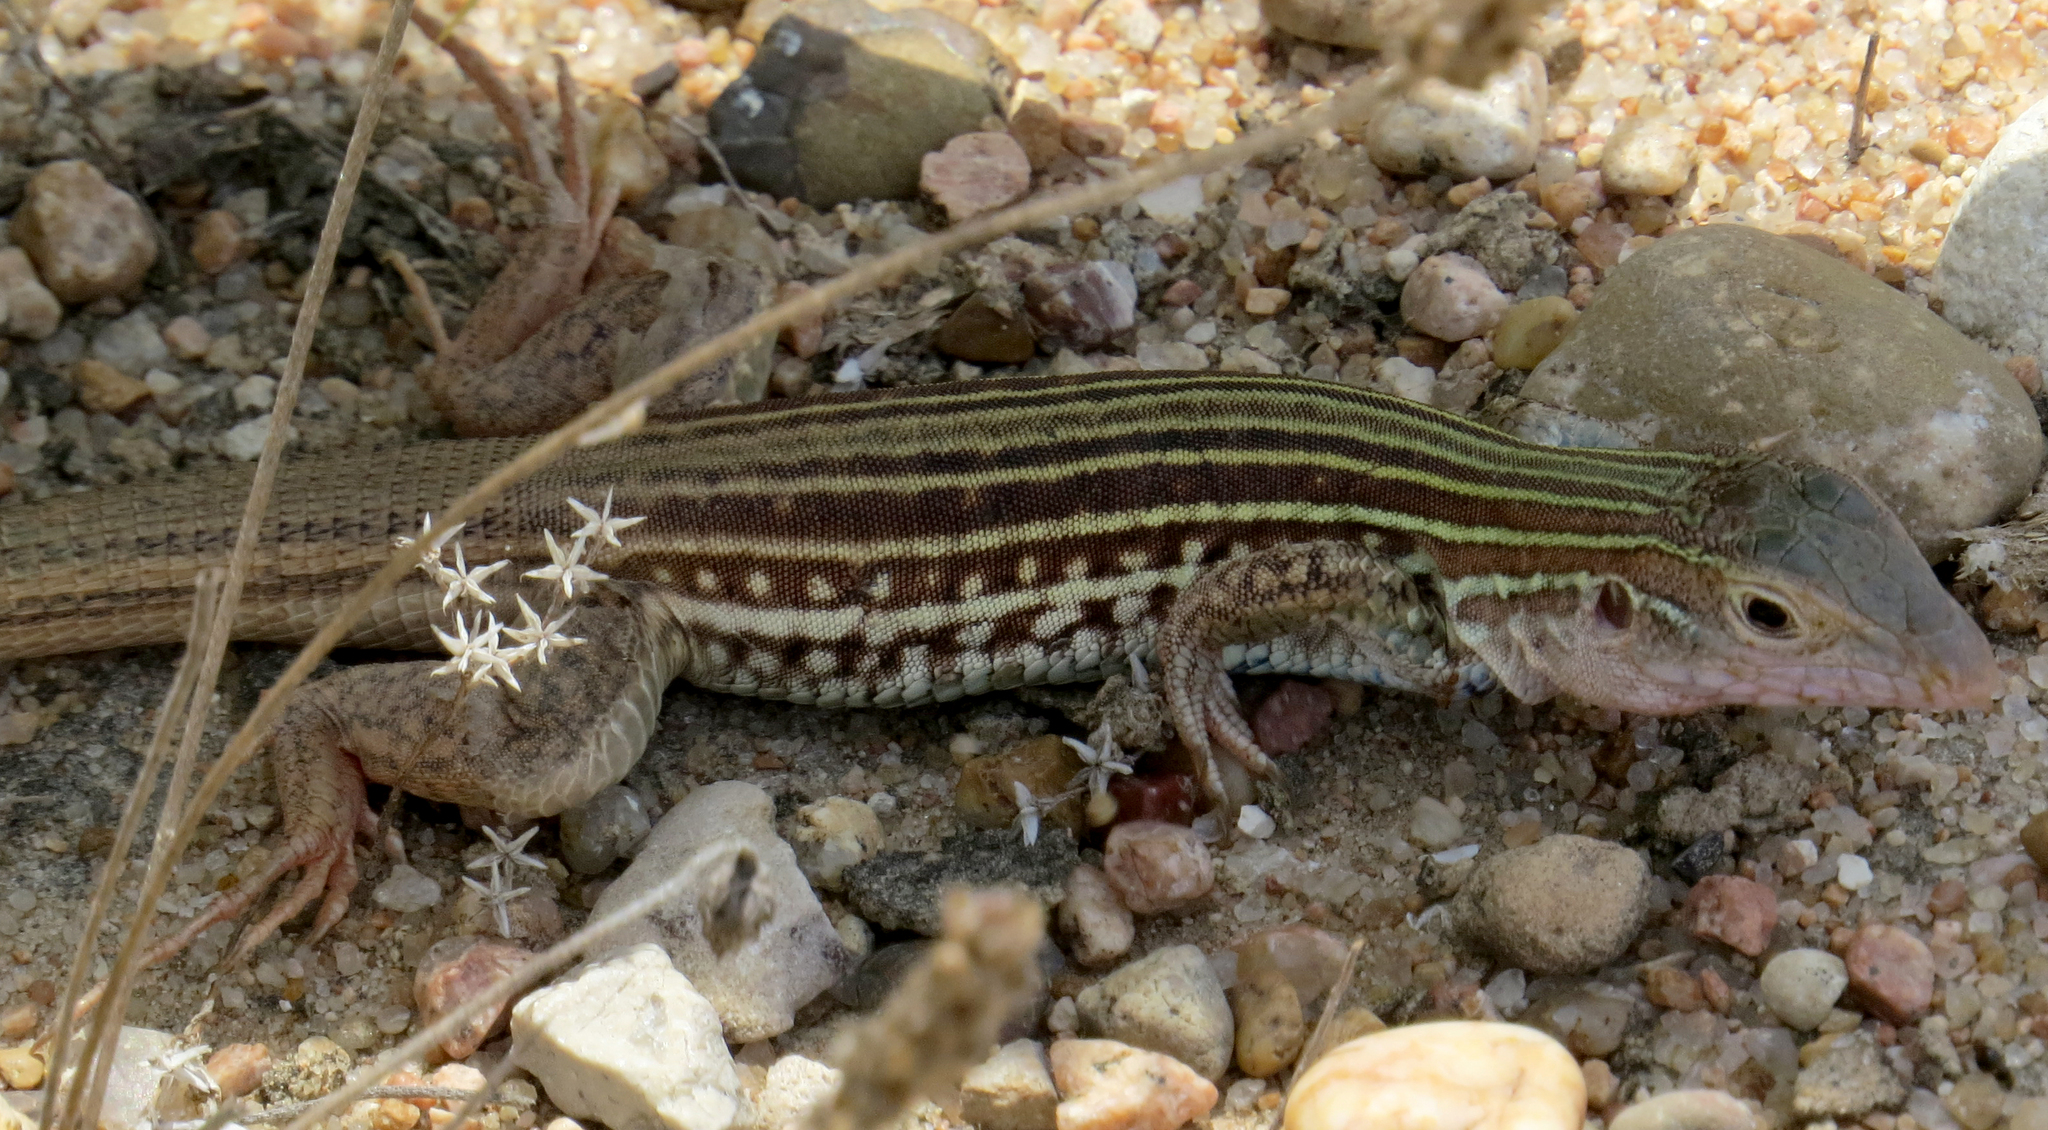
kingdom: Animalia
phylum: Chordata
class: Squamata
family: Teiidae
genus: Aspidoscelis
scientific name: Aspidoscelis gularis
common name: Eastern spotted whiptail
